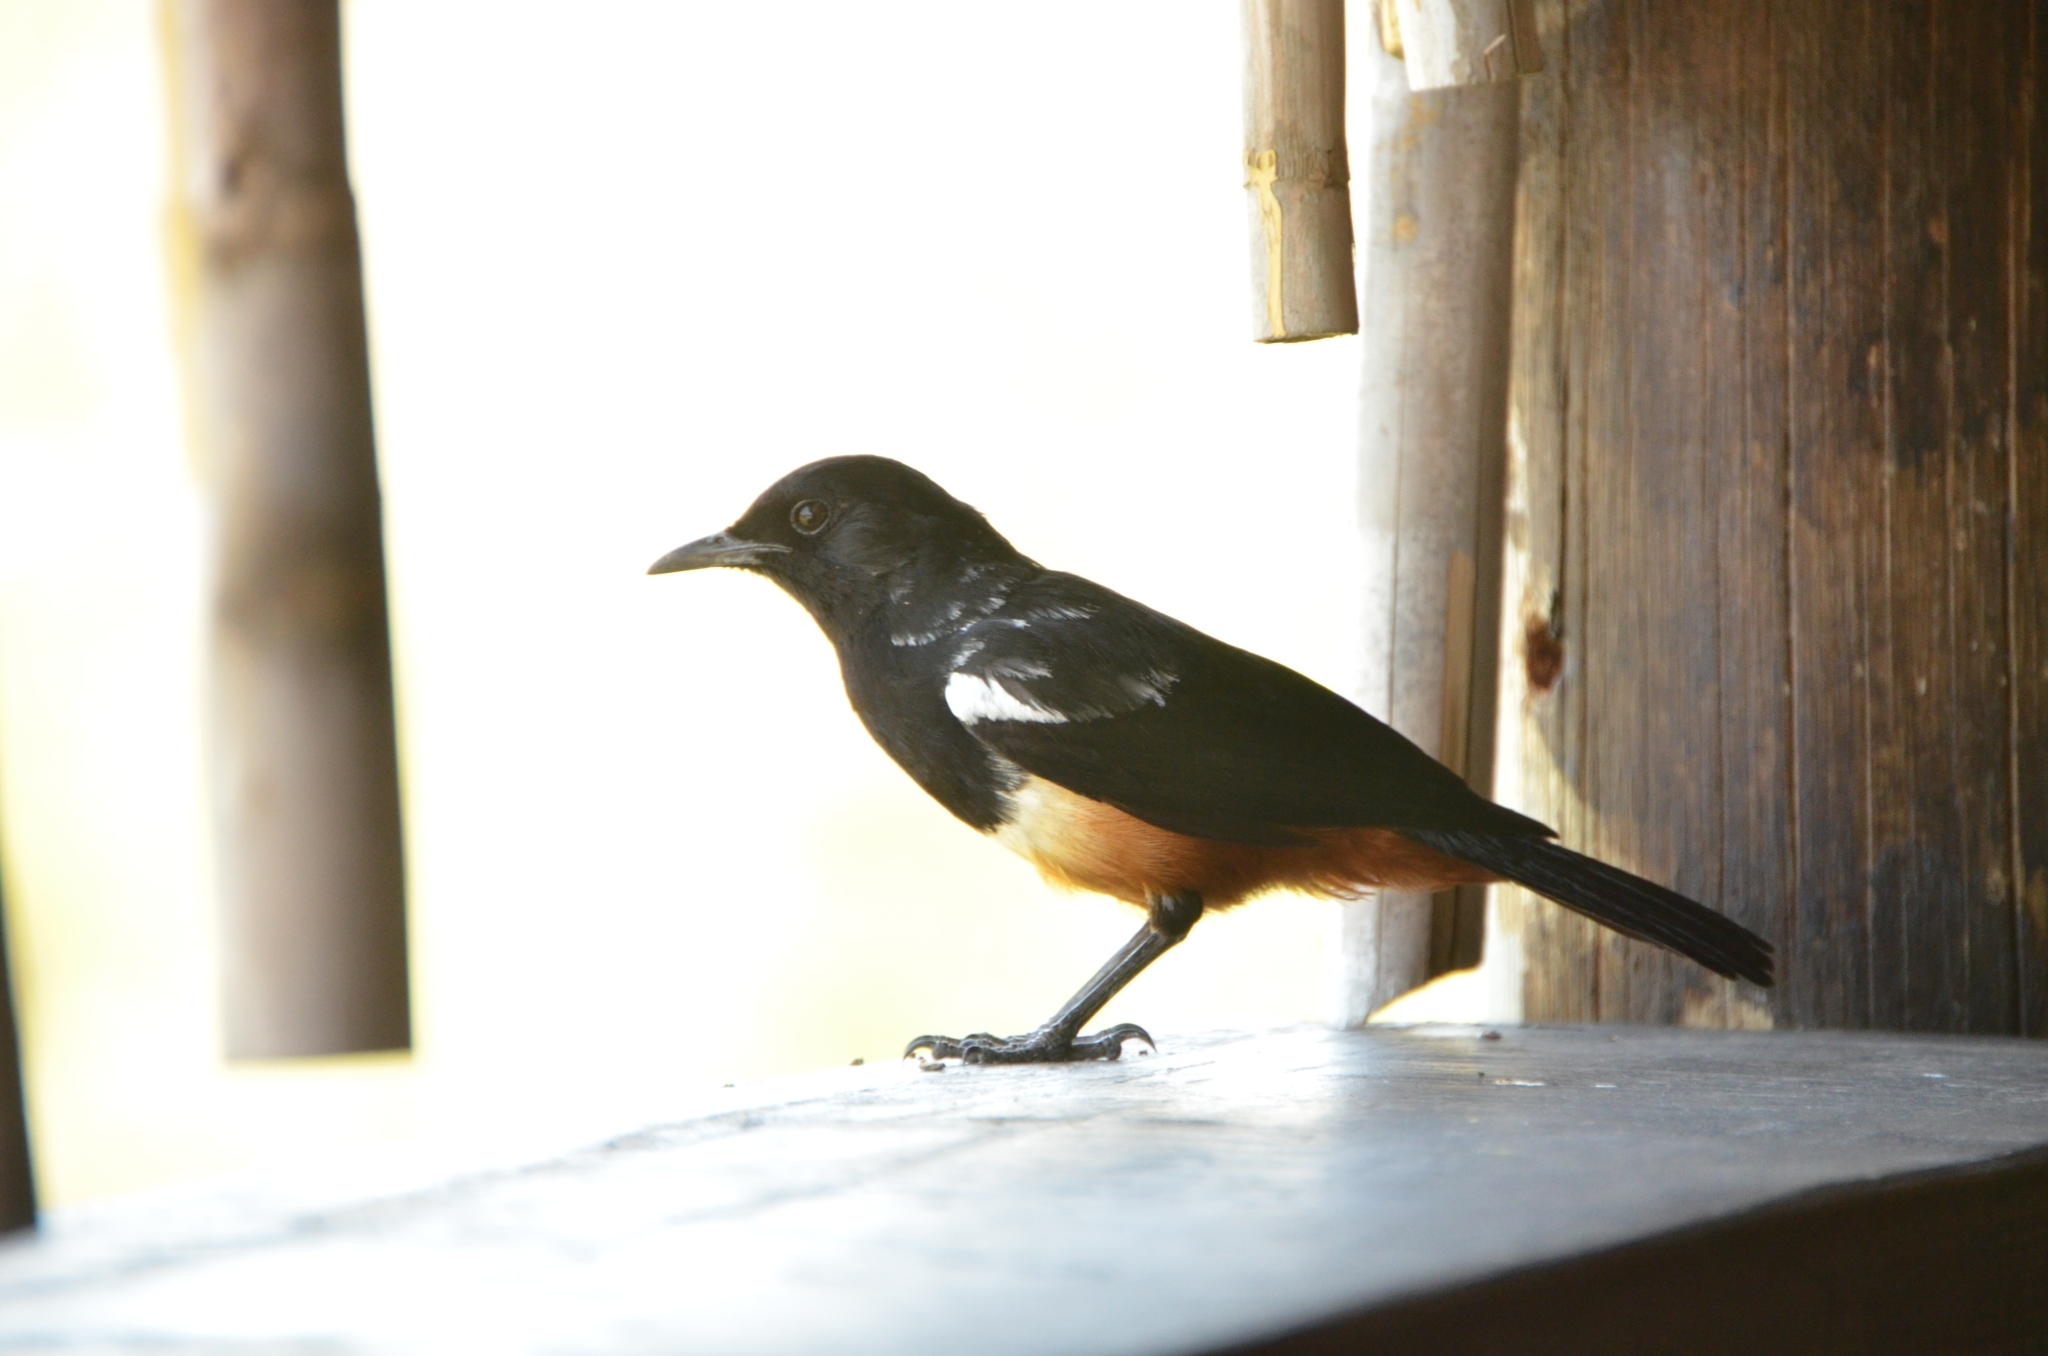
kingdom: Animalia
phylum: Chordata
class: Aves
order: Passeriformes
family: Muscicapidae
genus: Thamnolaea
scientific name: Thamnolaea cinnamomeiventris
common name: Mocking cliff chat
